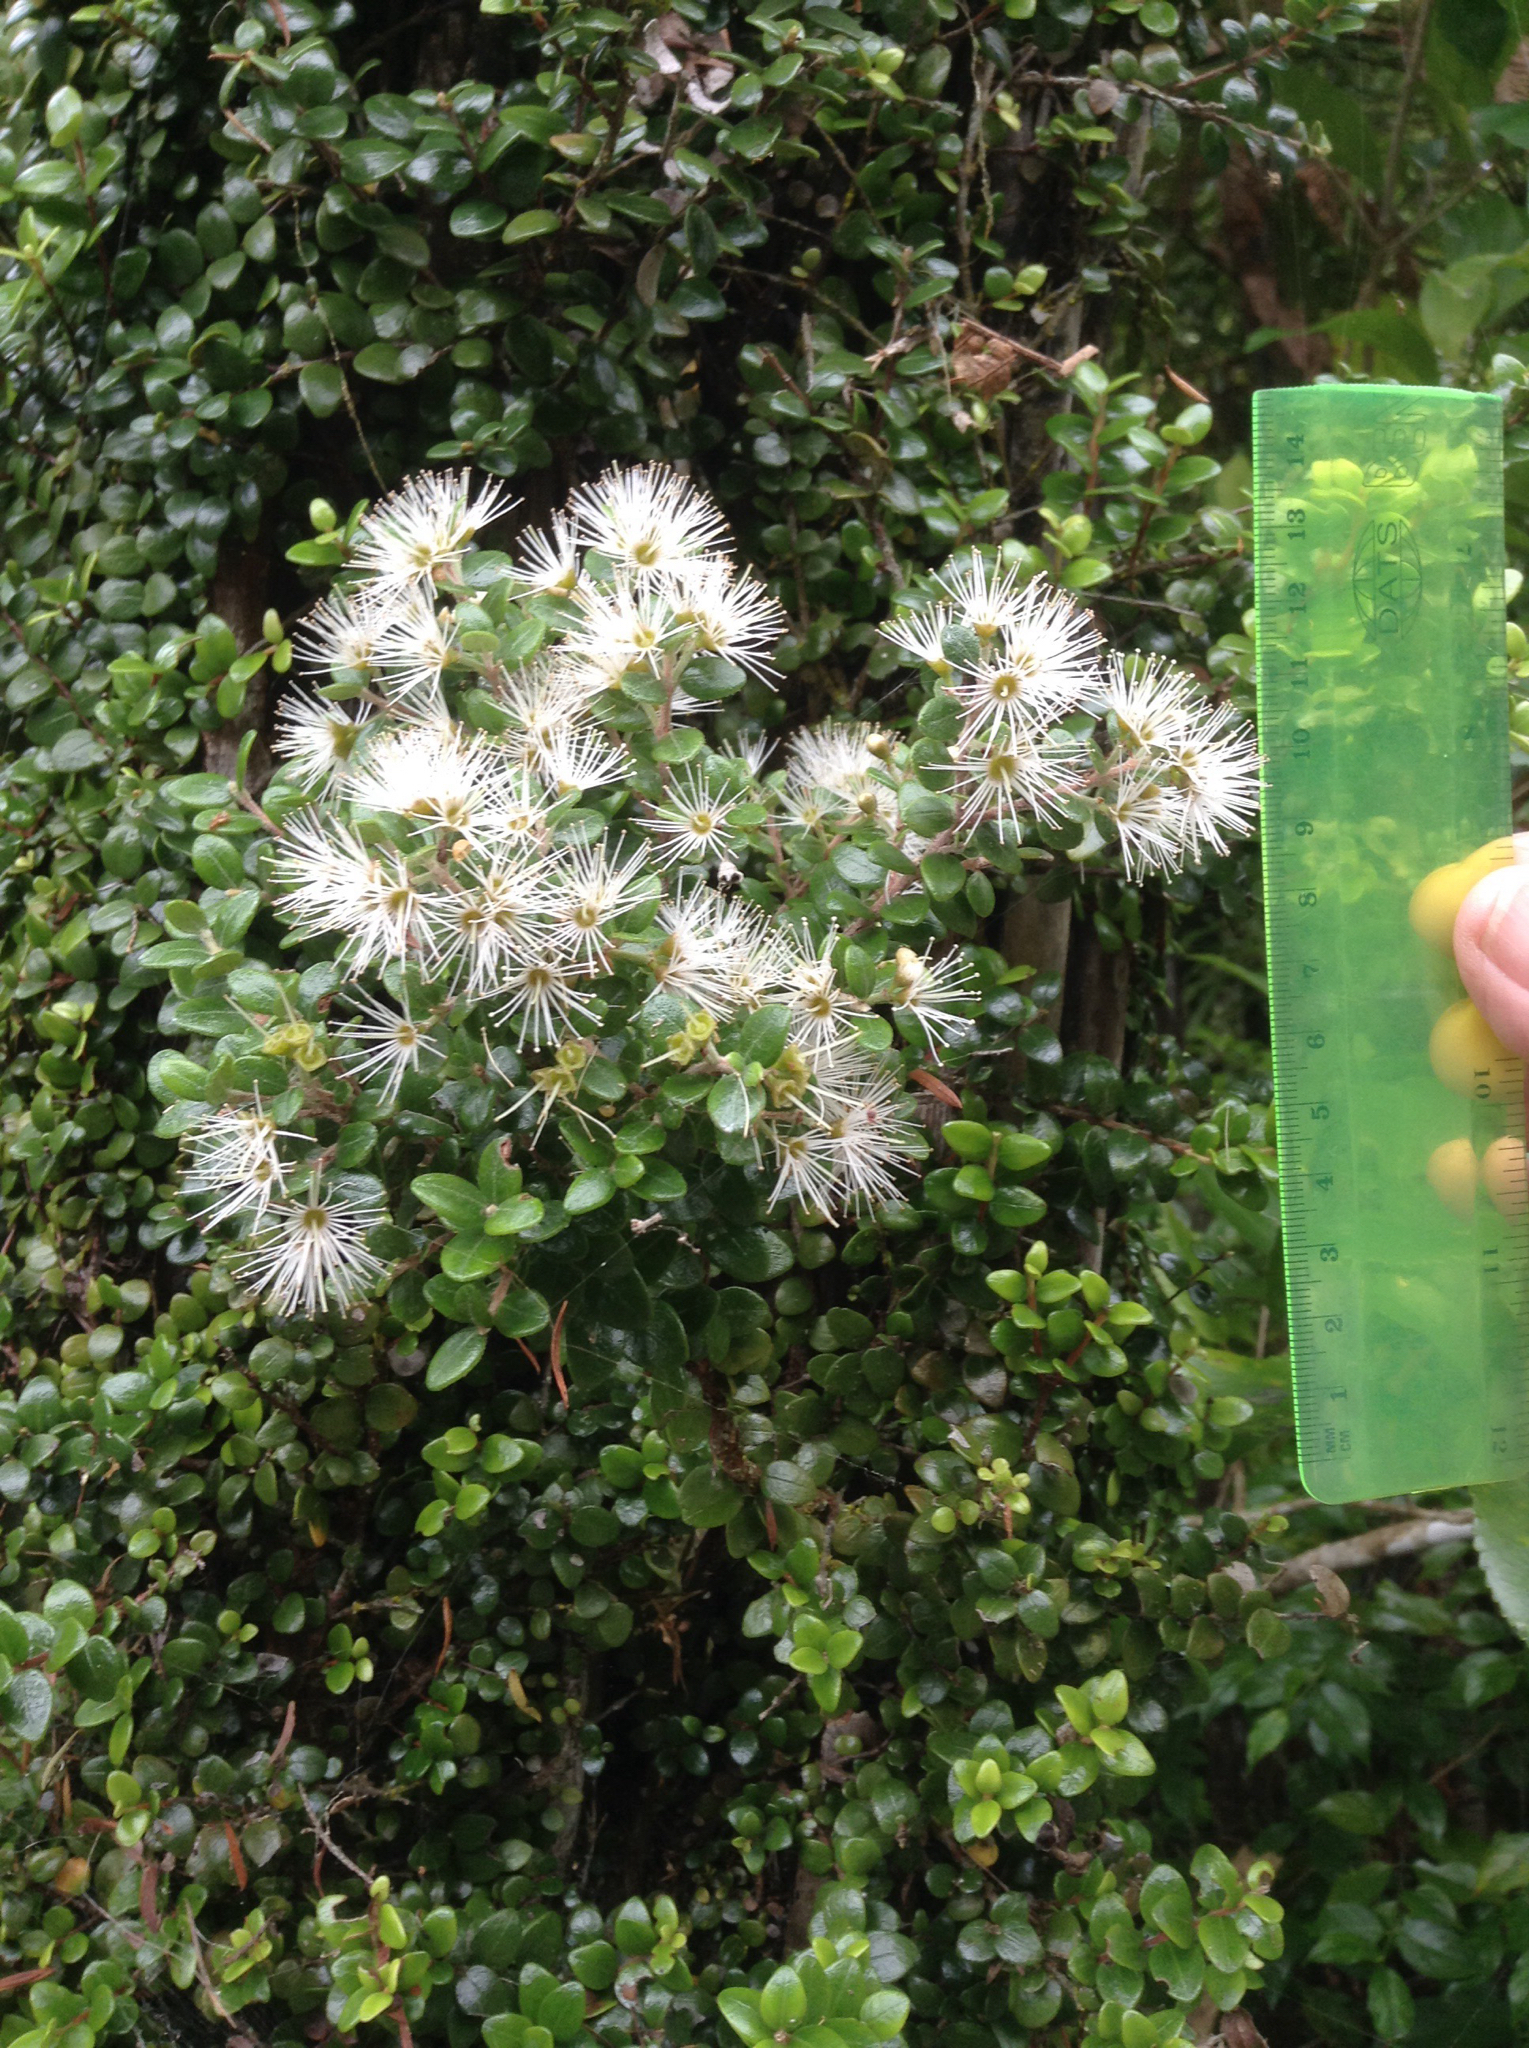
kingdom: Plantae
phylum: Tracheophyta
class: Magnoliopsida
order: Myrtales
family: Myrtaceae
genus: Metrosideros
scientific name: Metrosideros perforata
